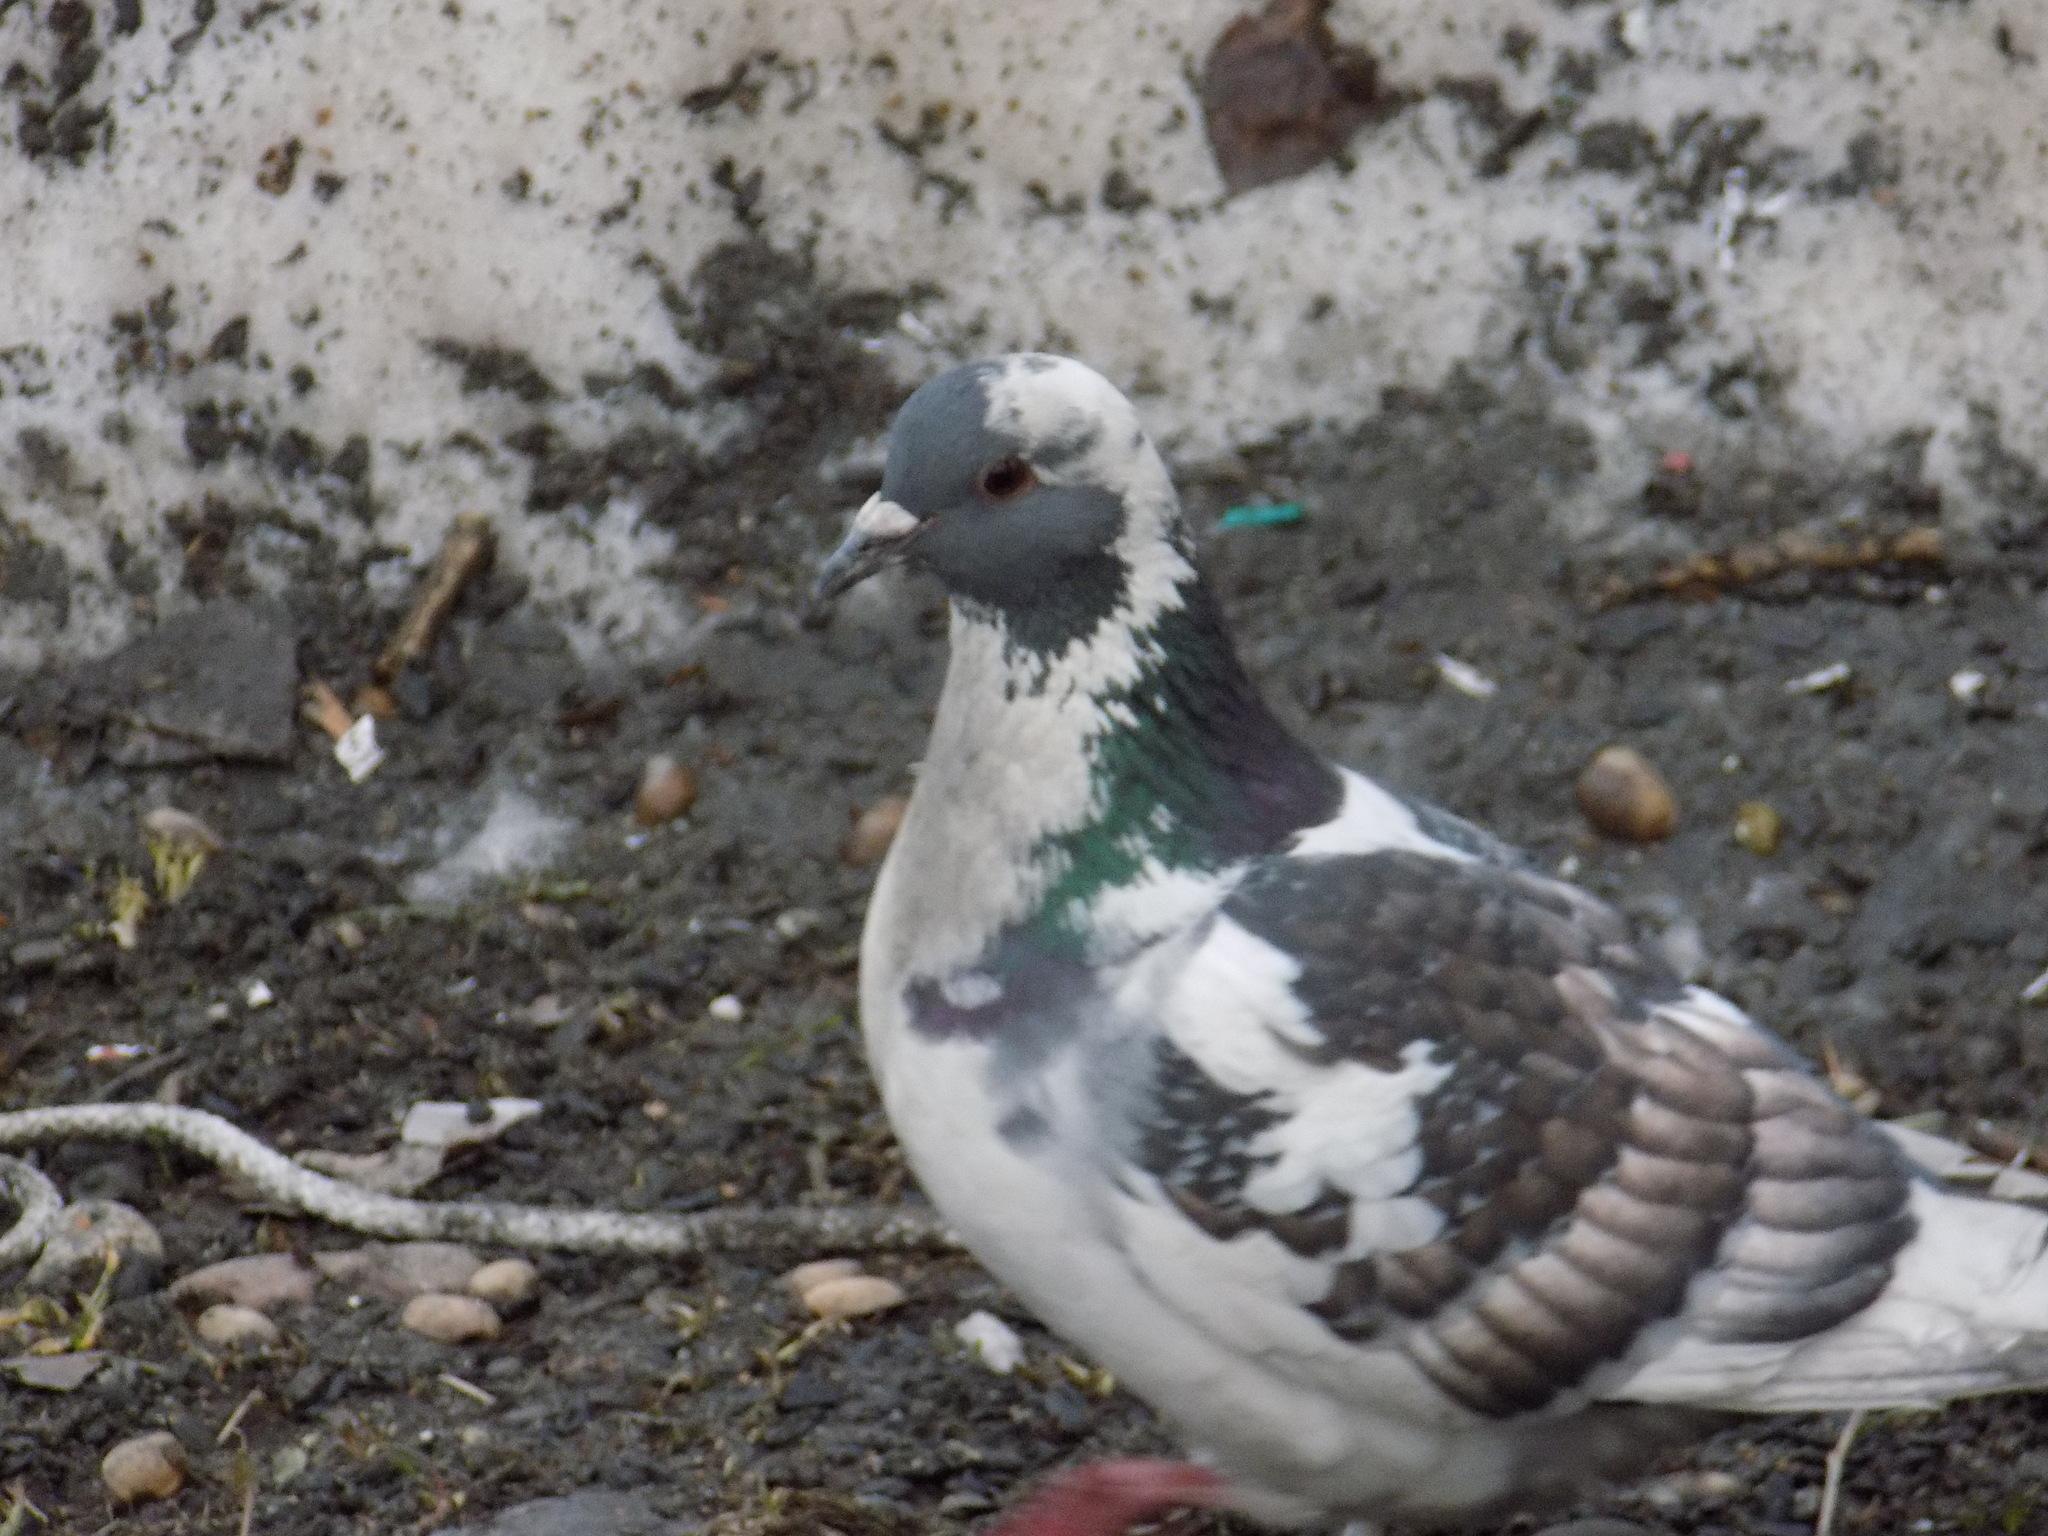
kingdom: Animalia
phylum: Chordata
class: Aves
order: Columbiformes
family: Columbidae
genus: Columba
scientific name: Columba livia
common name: Rock pigeon
